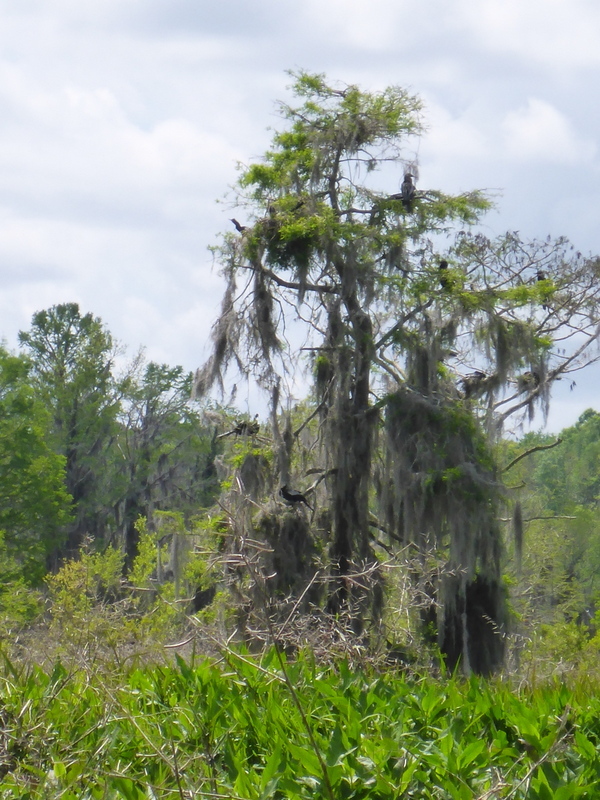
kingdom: Animalia
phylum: Chordata
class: Aves
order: Suliformes
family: Anhingidae
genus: Anhinga
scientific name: Anhinga anhinga
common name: Anhinga
